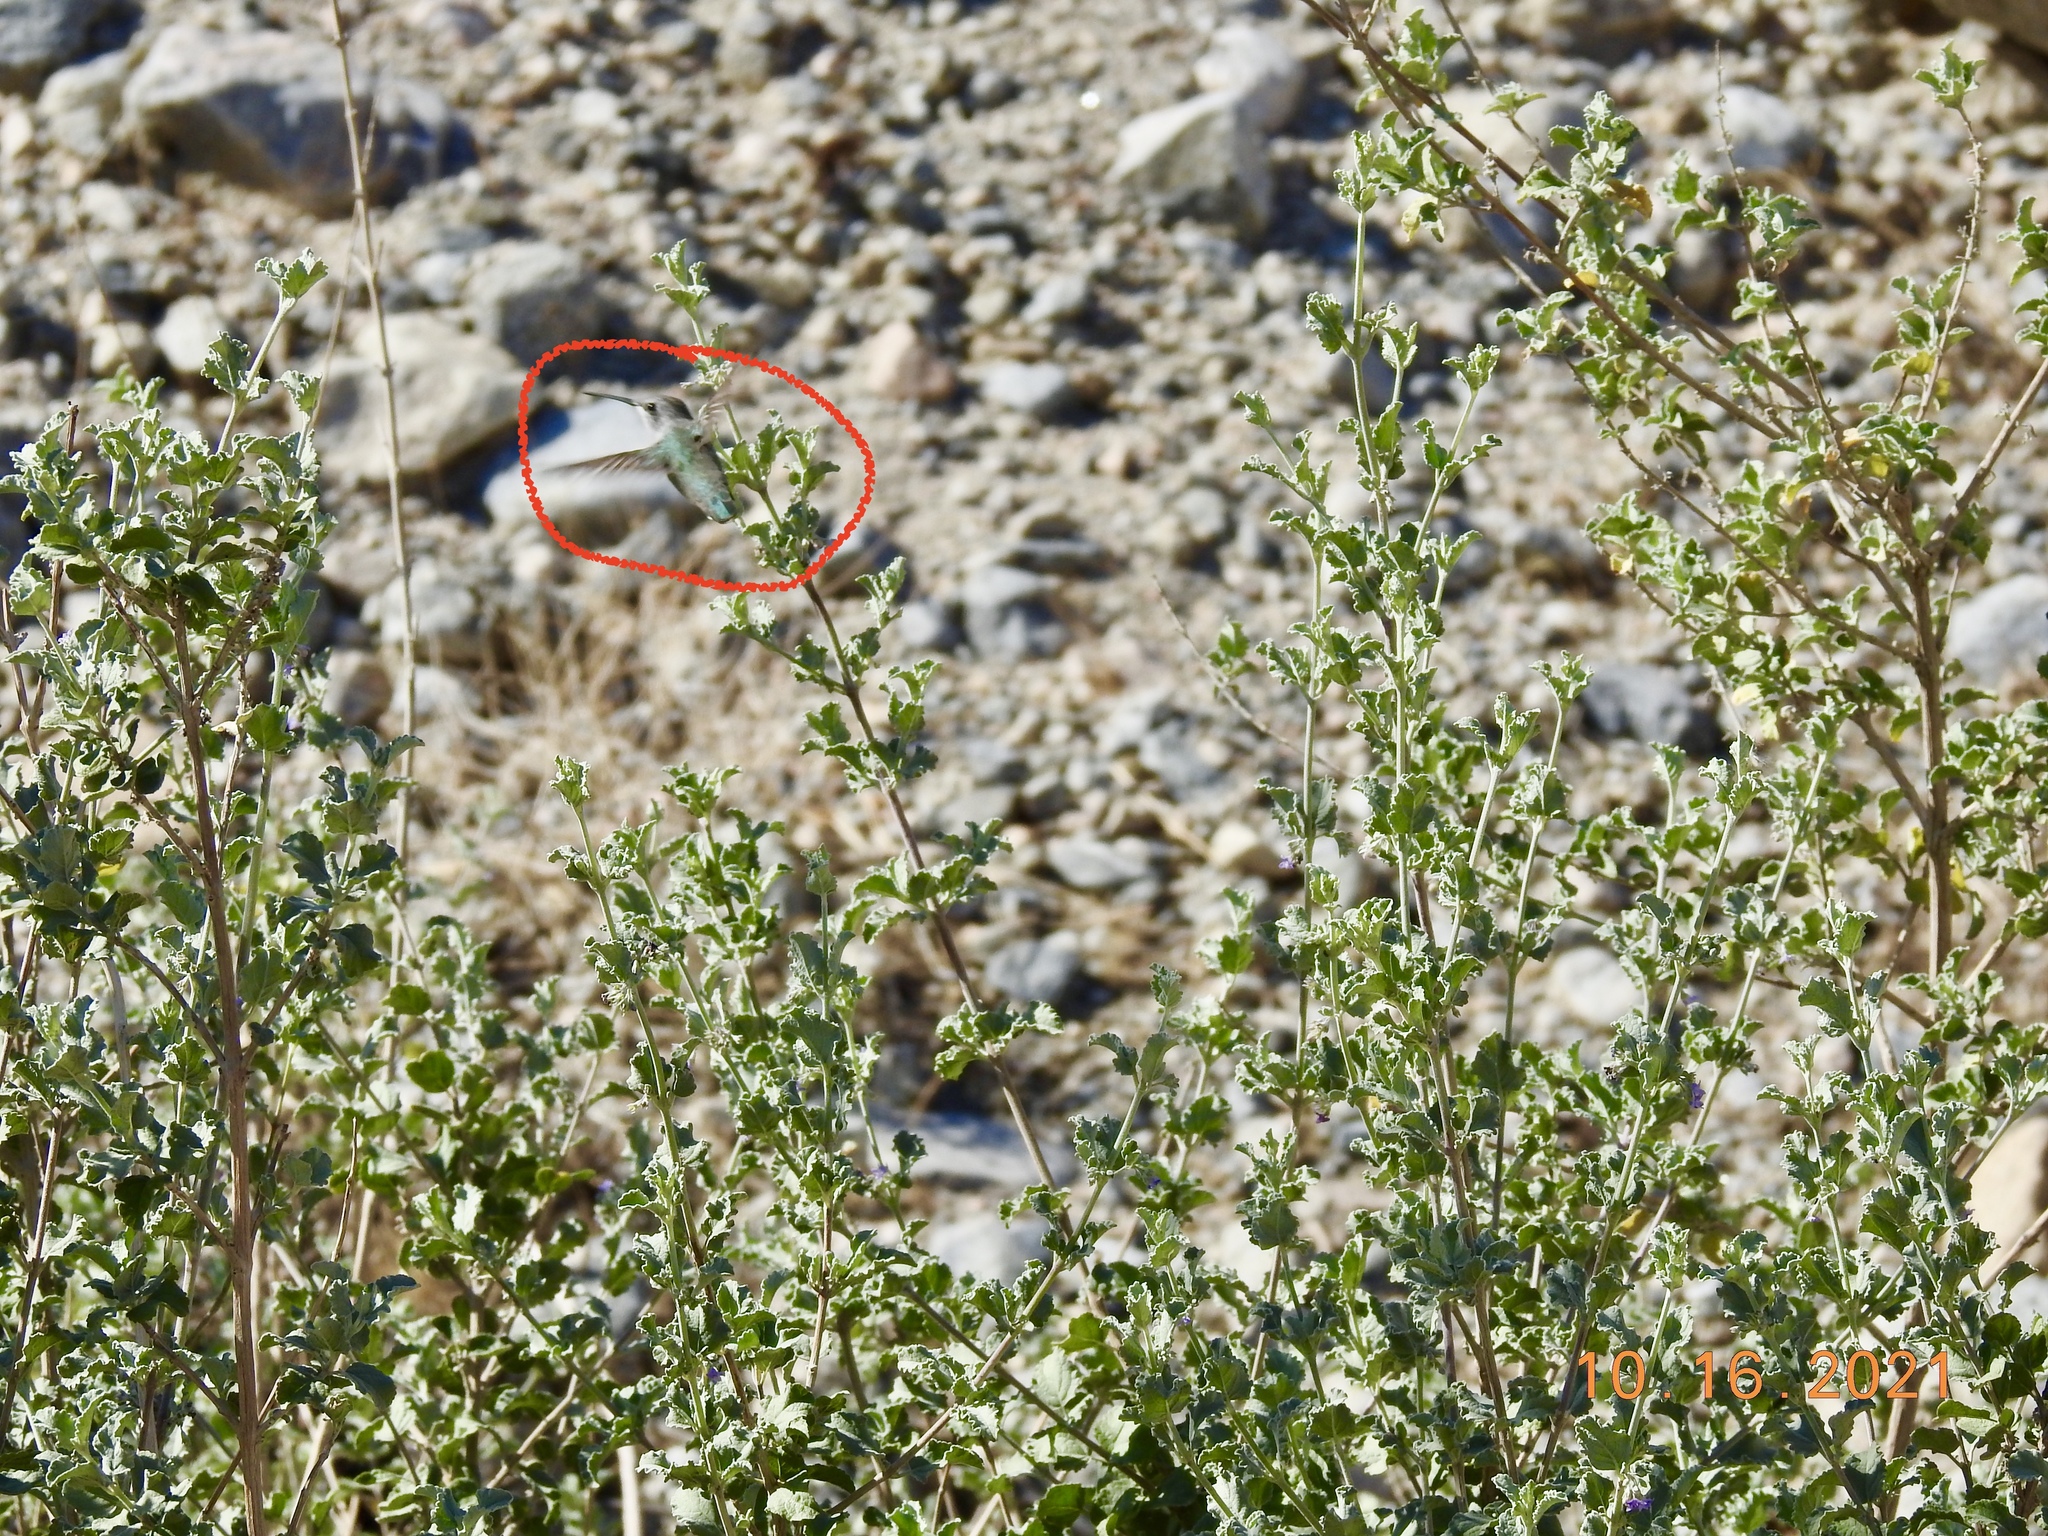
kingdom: Animalia
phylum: Chordata
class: Aves
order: Apodiformes
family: Trochilidae
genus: Calypte
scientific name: Calypte costae
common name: Costa's hummingbird
